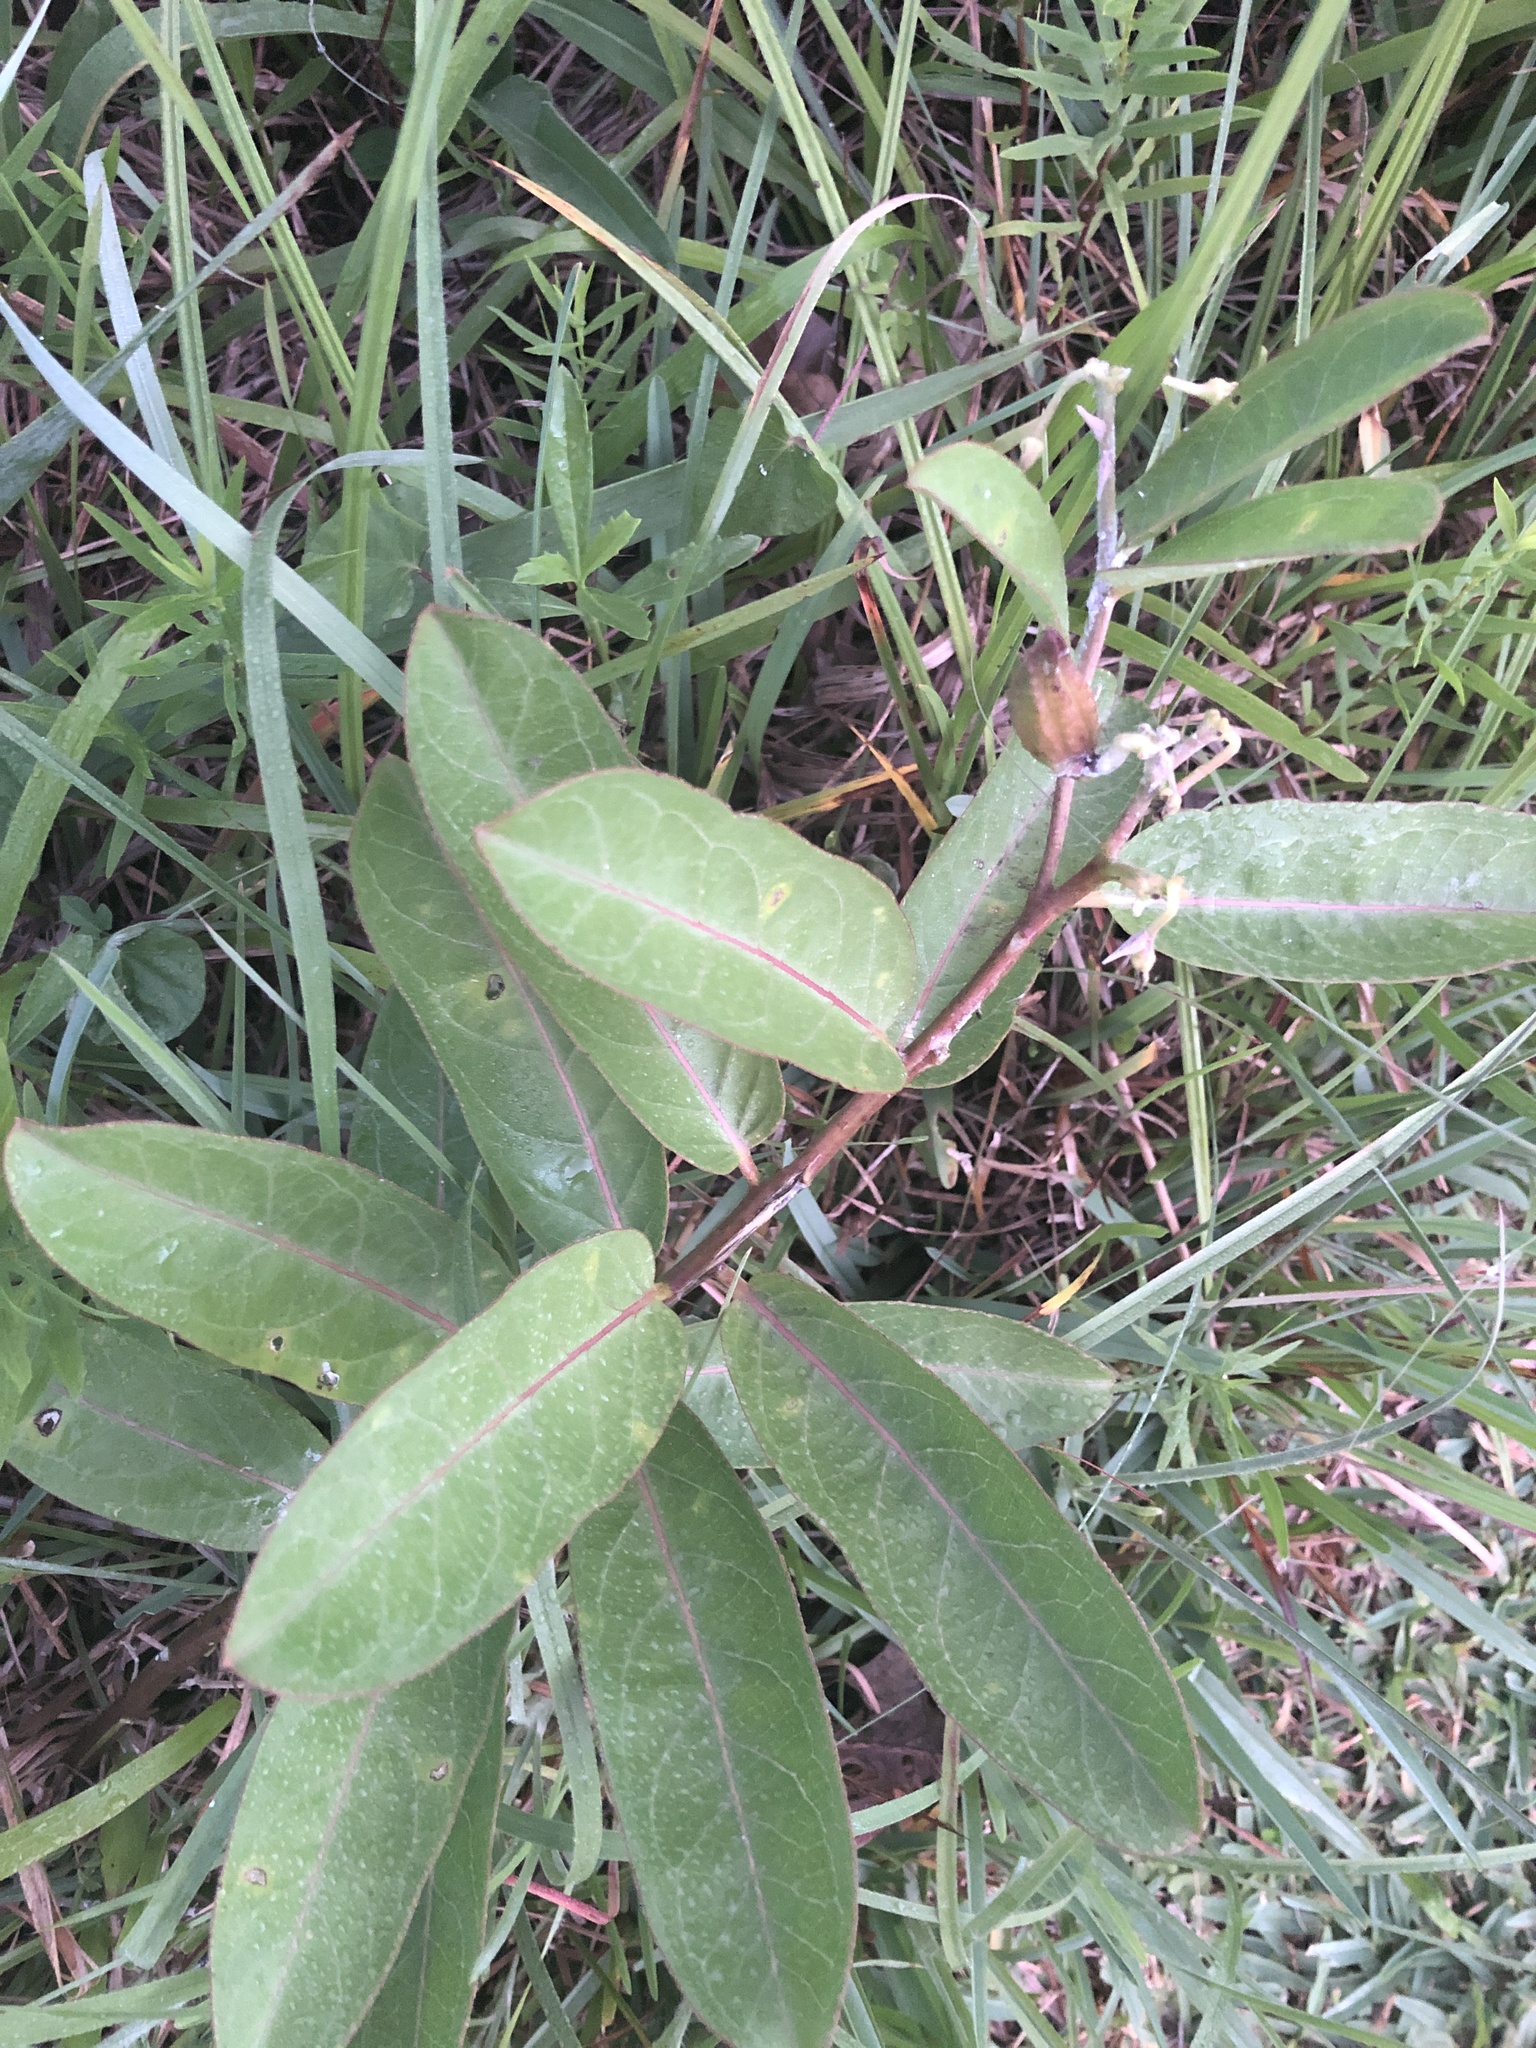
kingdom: Plantae
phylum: Tracheophyta
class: Magnoliopsida
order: Gentianales
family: Apocynaceae
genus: Asclepias
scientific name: Asclepias viridis
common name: Antelope-horns
